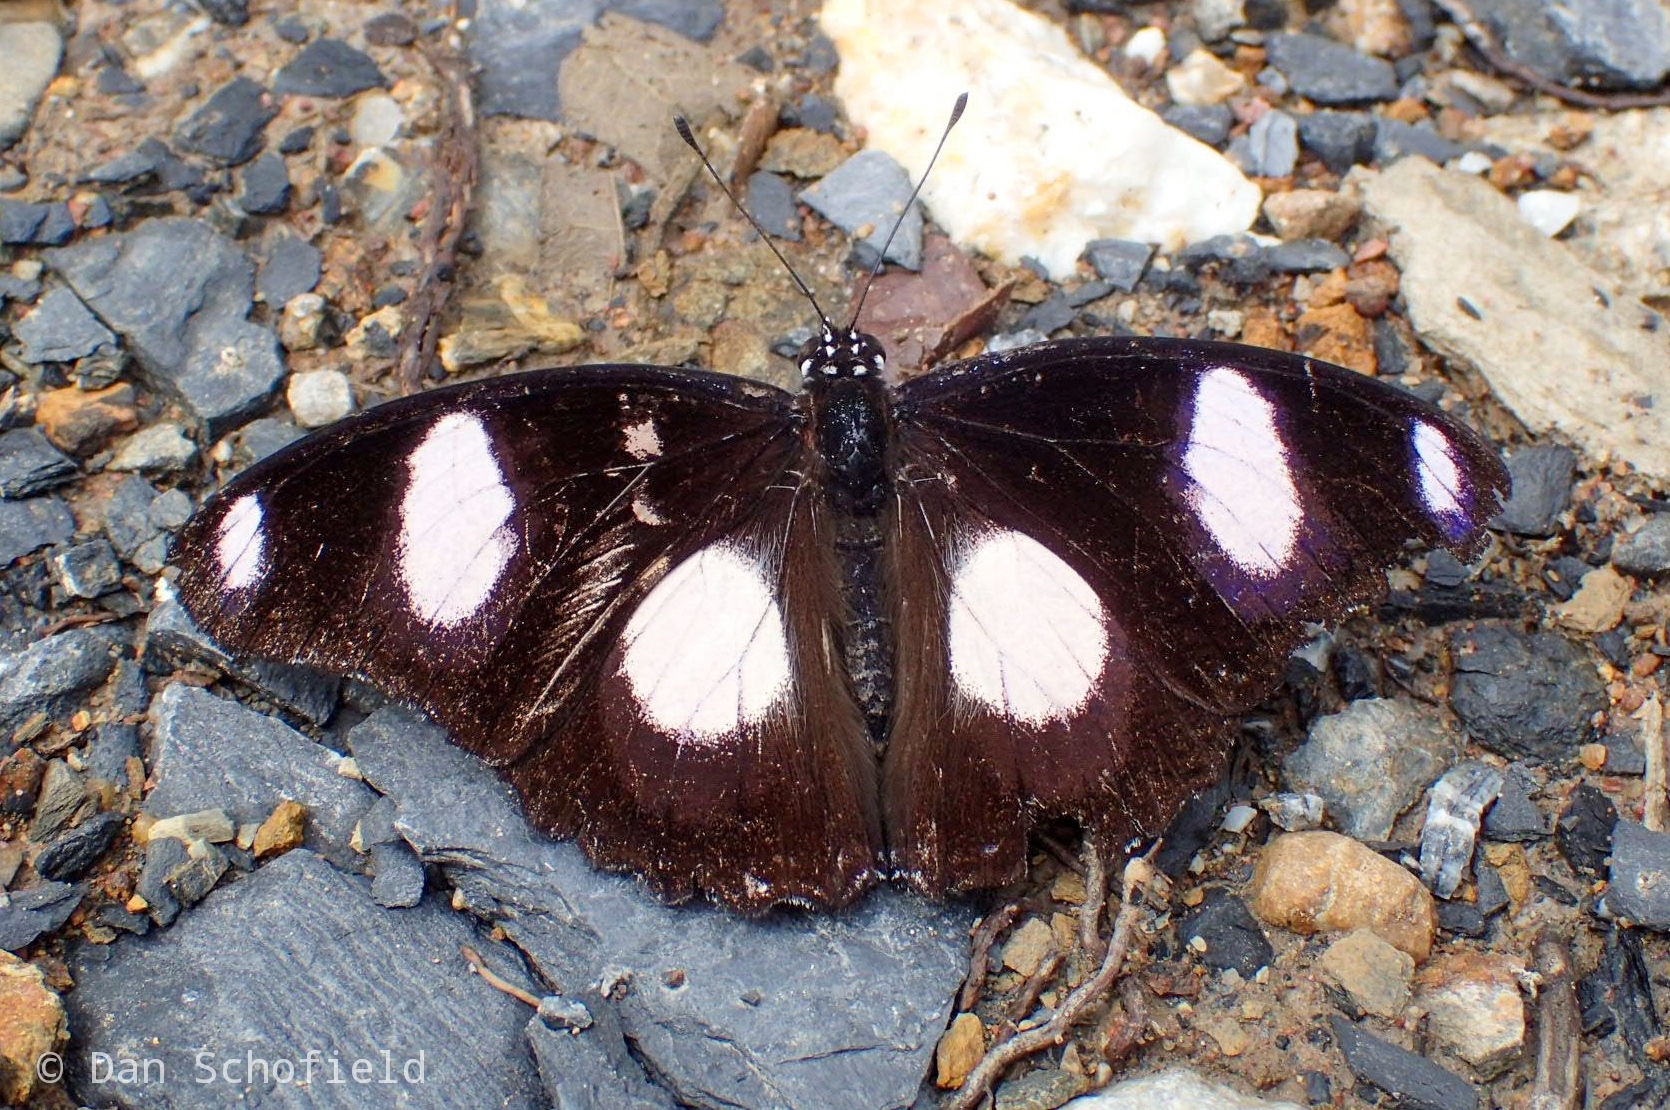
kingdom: Animalia
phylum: Arthropoda
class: Insecta
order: Lepidoptera
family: Nymphalidae
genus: Hypolimnas
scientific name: Hypolimnas misippus
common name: False plain tiger
